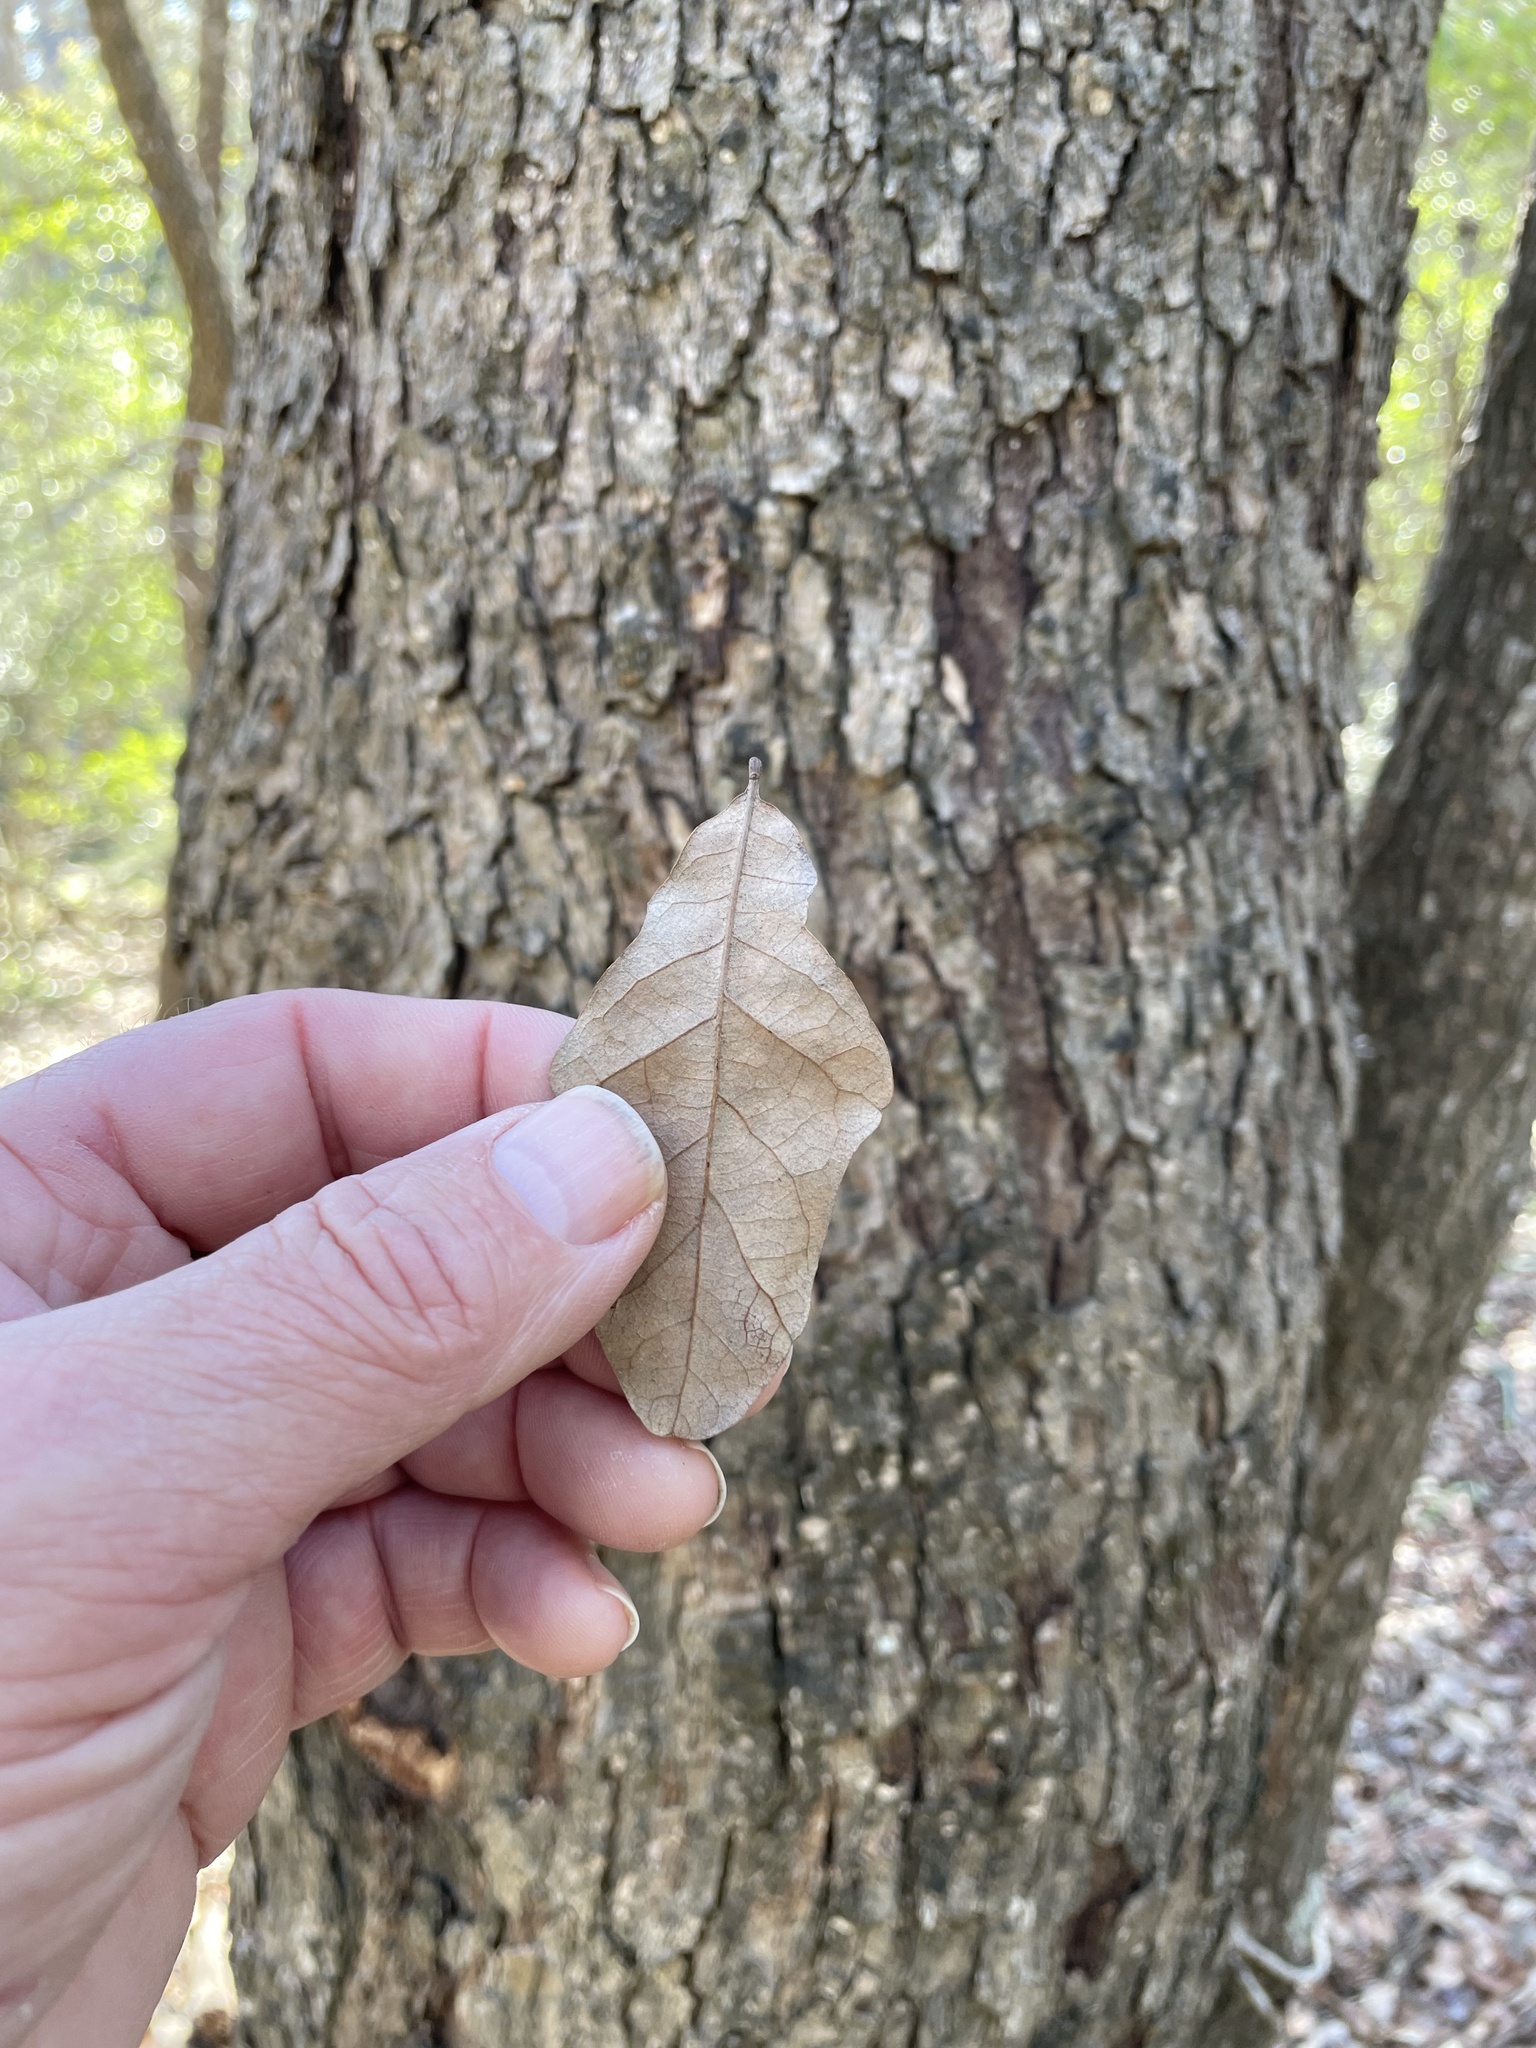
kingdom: Plantae
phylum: Tracheophyta
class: Magnoliopsida
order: Fagales
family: Fagaceae
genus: Quercus
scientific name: Quercus sinuata
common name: Durand oak
